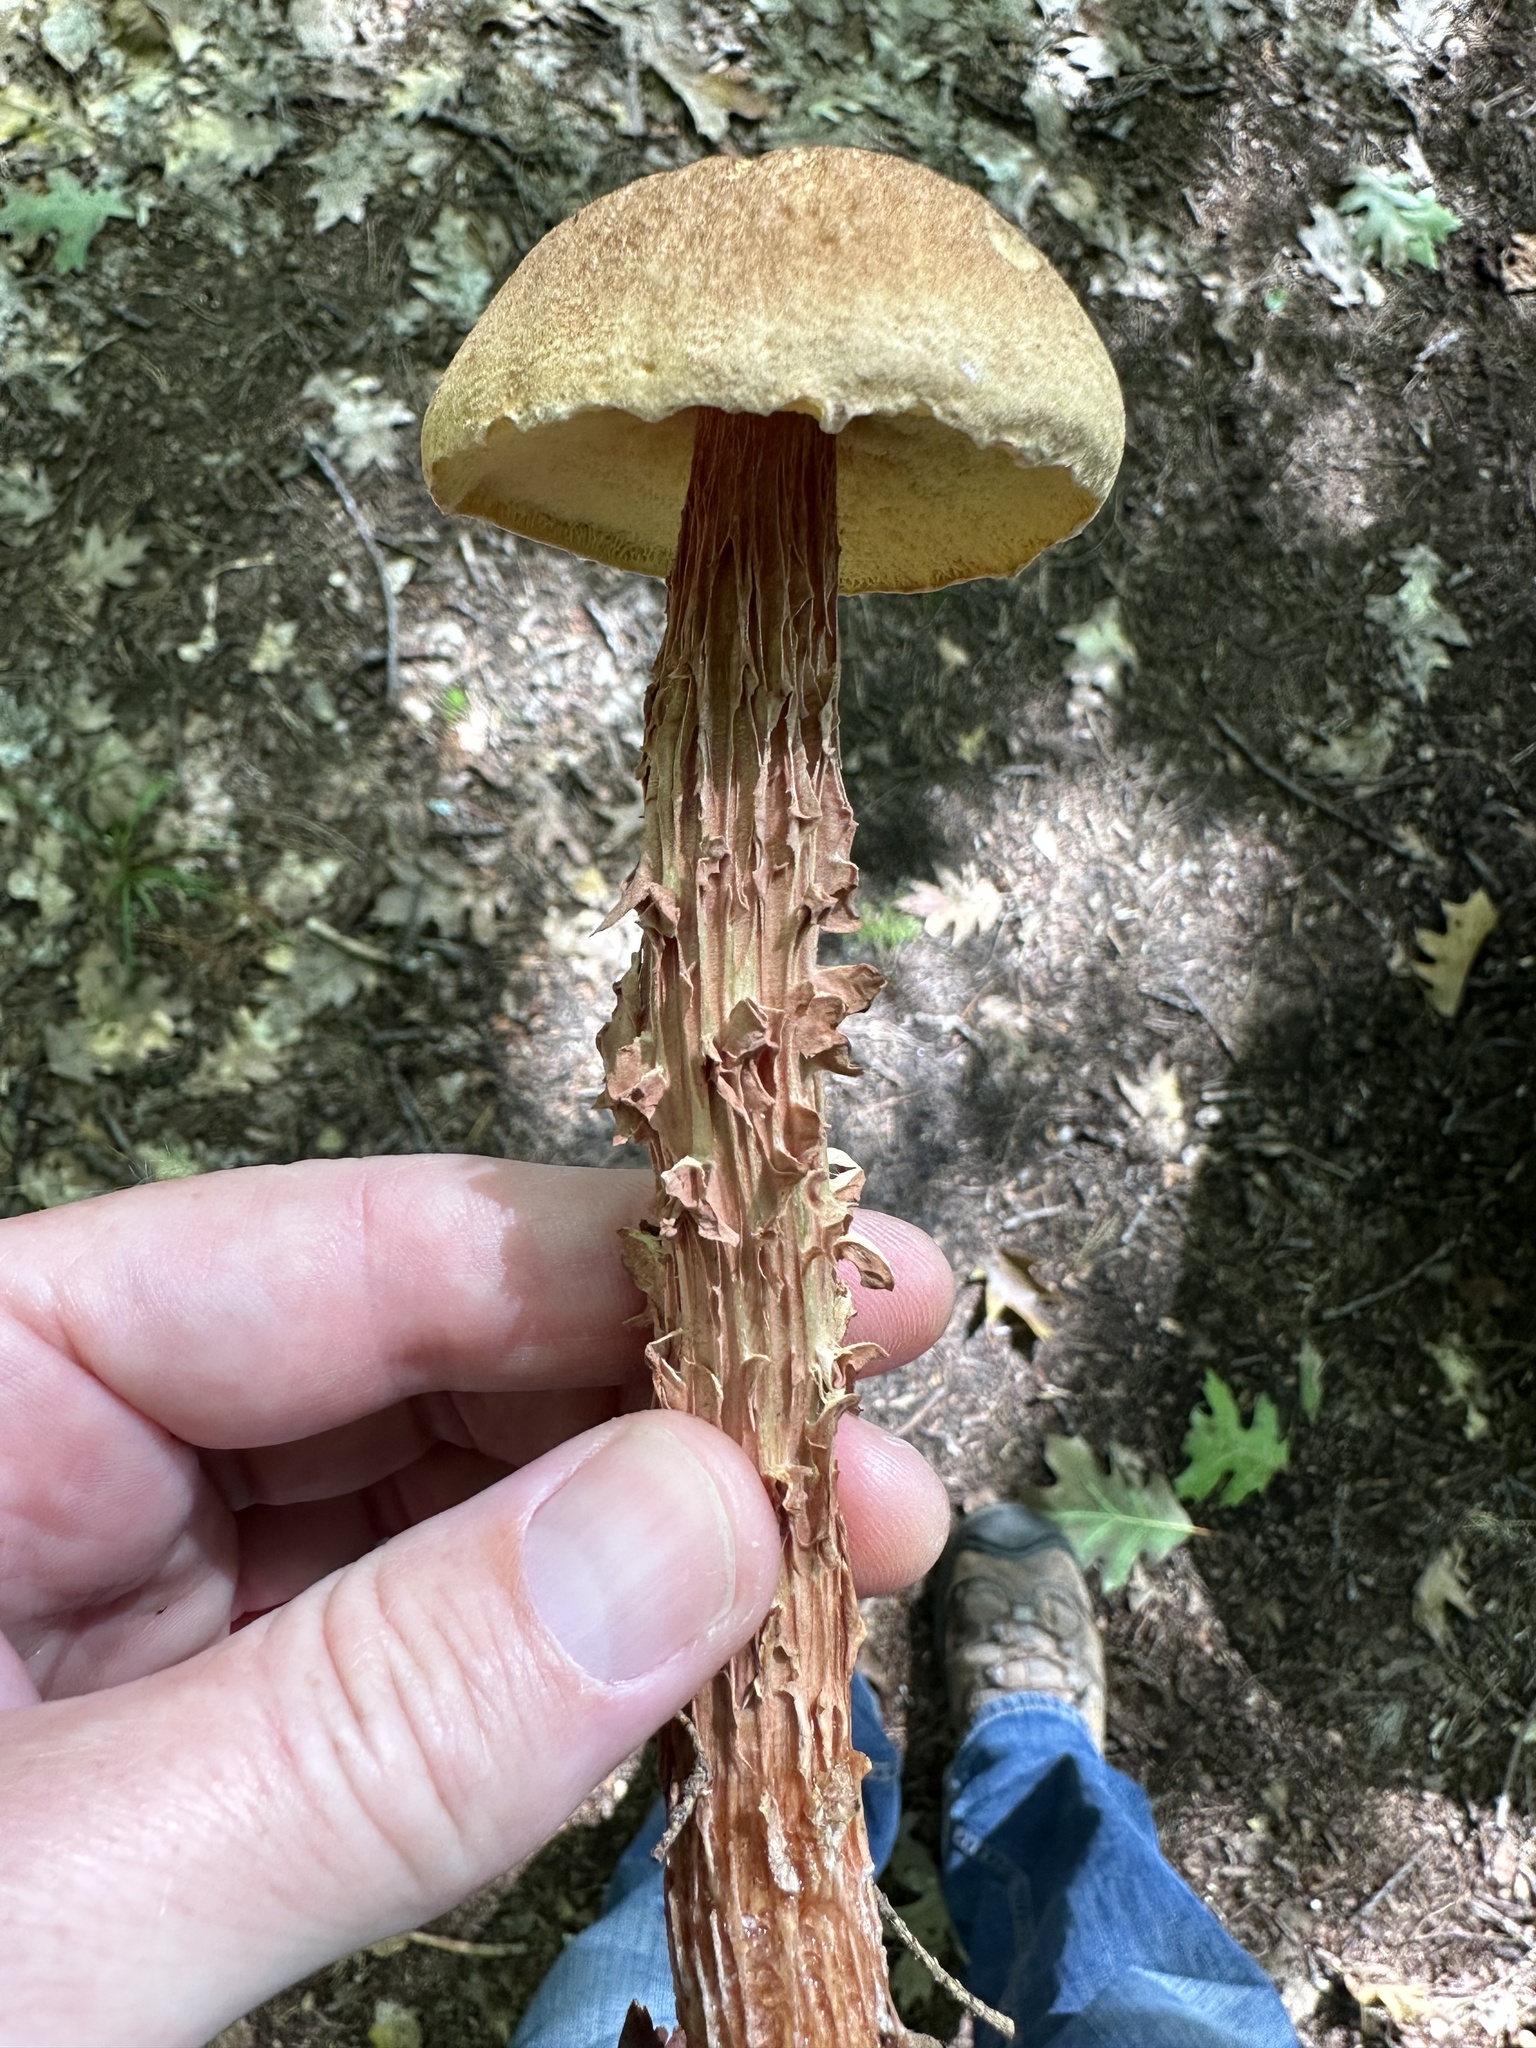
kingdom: Fungi
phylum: Basidiomycota
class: Agaricomycetes
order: Boletales
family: Boletaceae
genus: Aureoboletus
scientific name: Aureoboletus russellii
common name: Russell's bolete
